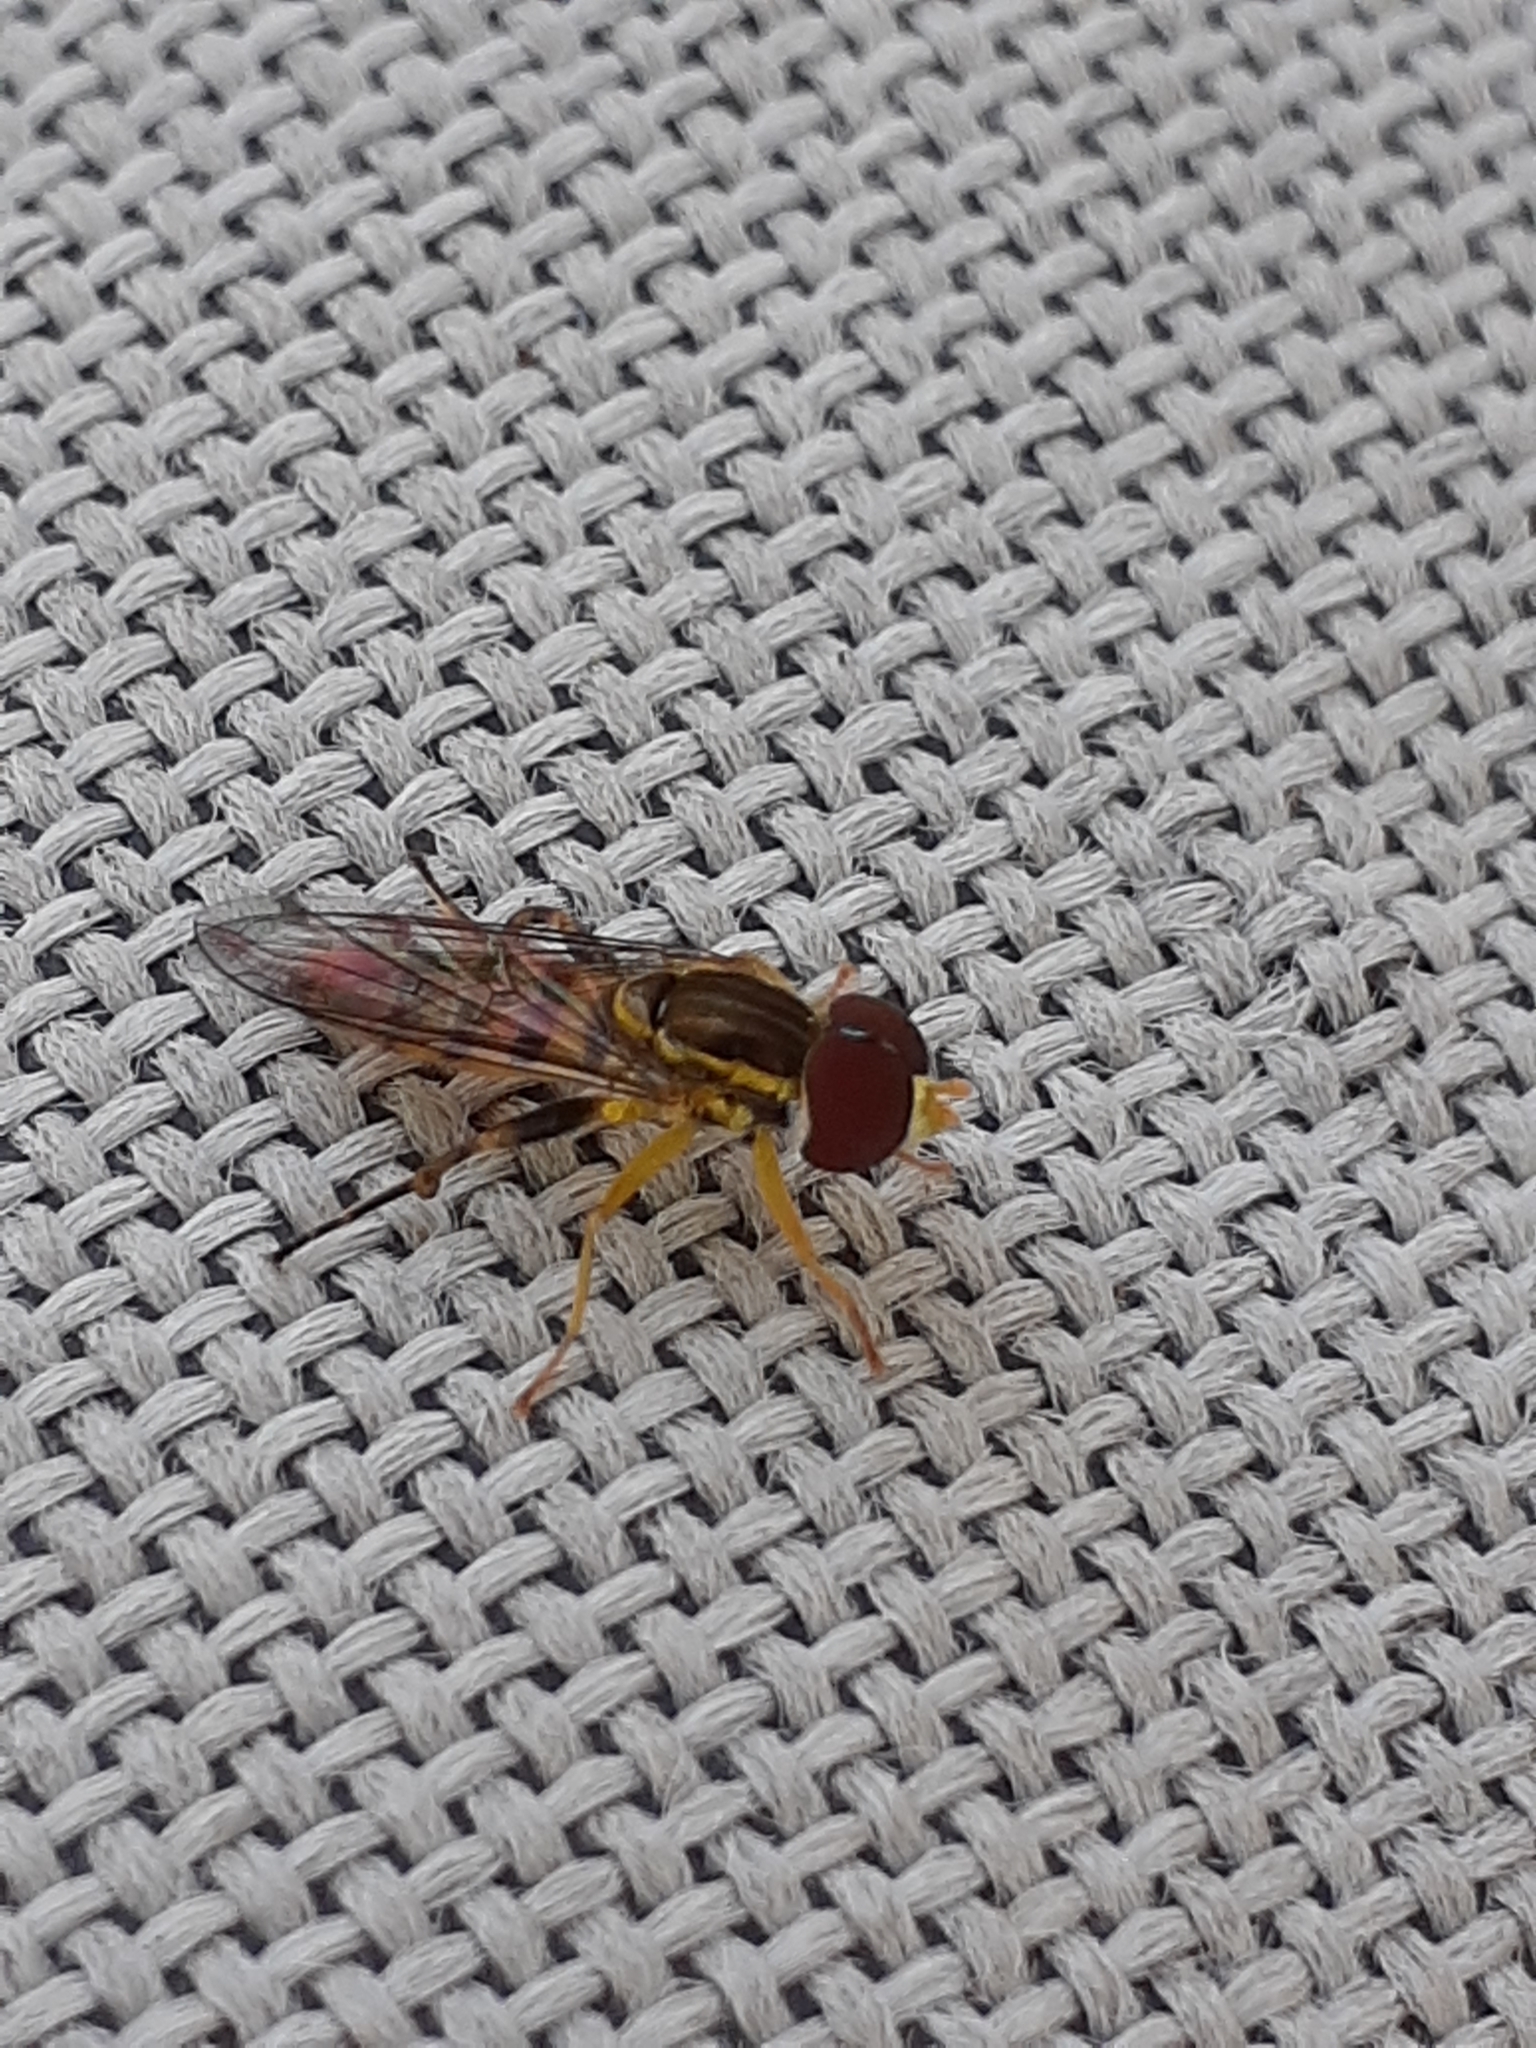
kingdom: Animalia
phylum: Arthropoda
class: Insecta
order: Diptera
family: Syrphidae
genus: Toxomerus
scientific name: Toxomerus geminatus
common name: Eastern calligrapher
